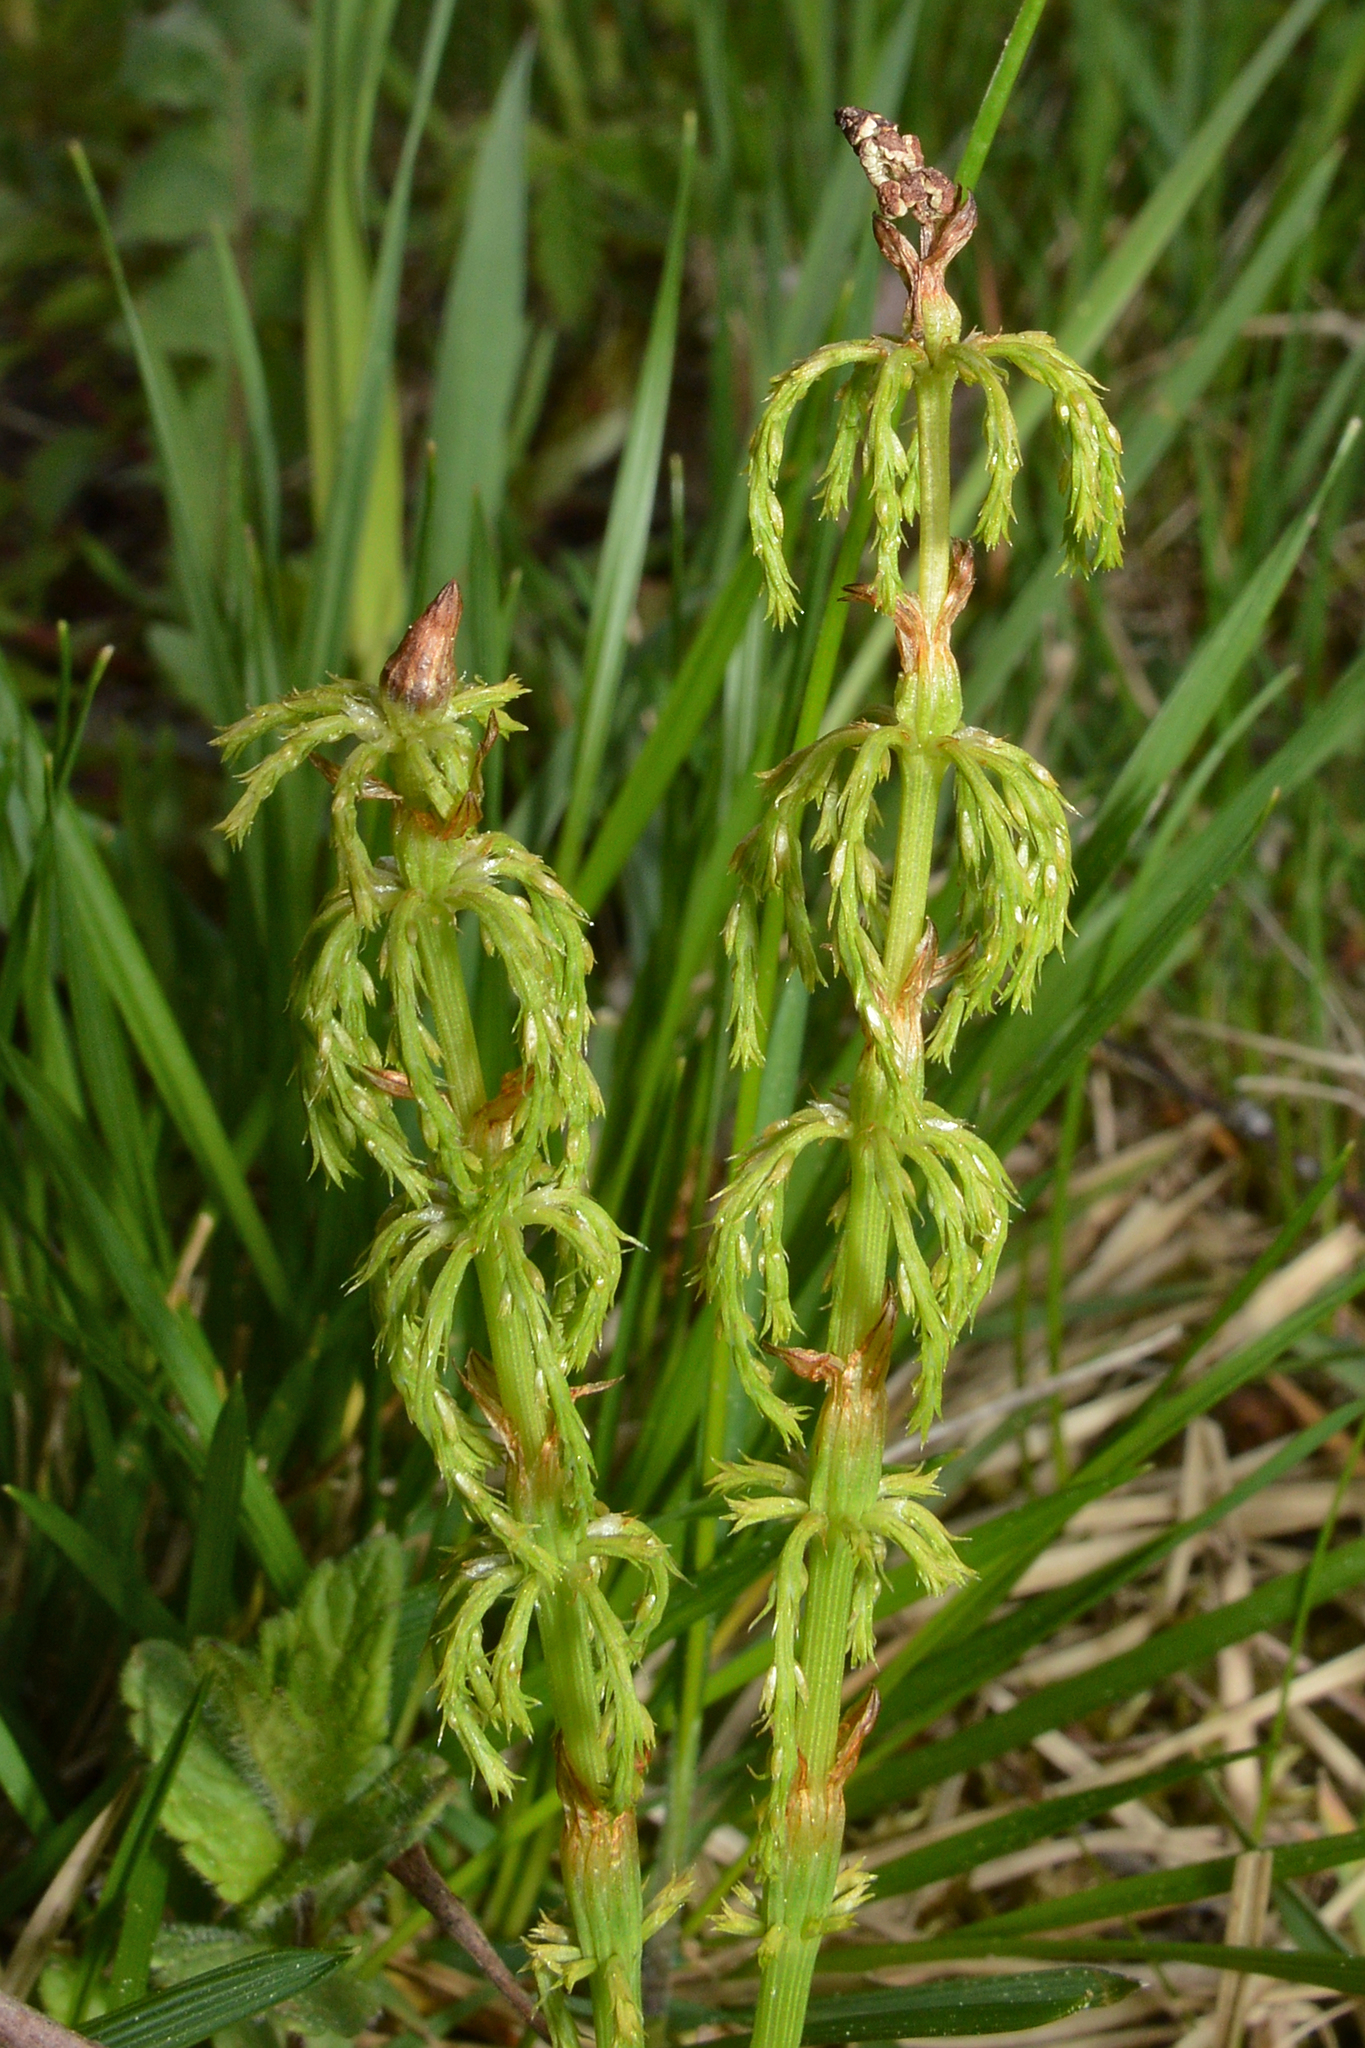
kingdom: Plantae
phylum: Tracheophyta
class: Polypodiopsida
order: Equisetales
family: Equisetaceae
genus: Equisetum
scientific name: Equisetum sylvaticum
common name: Wood horsetail
